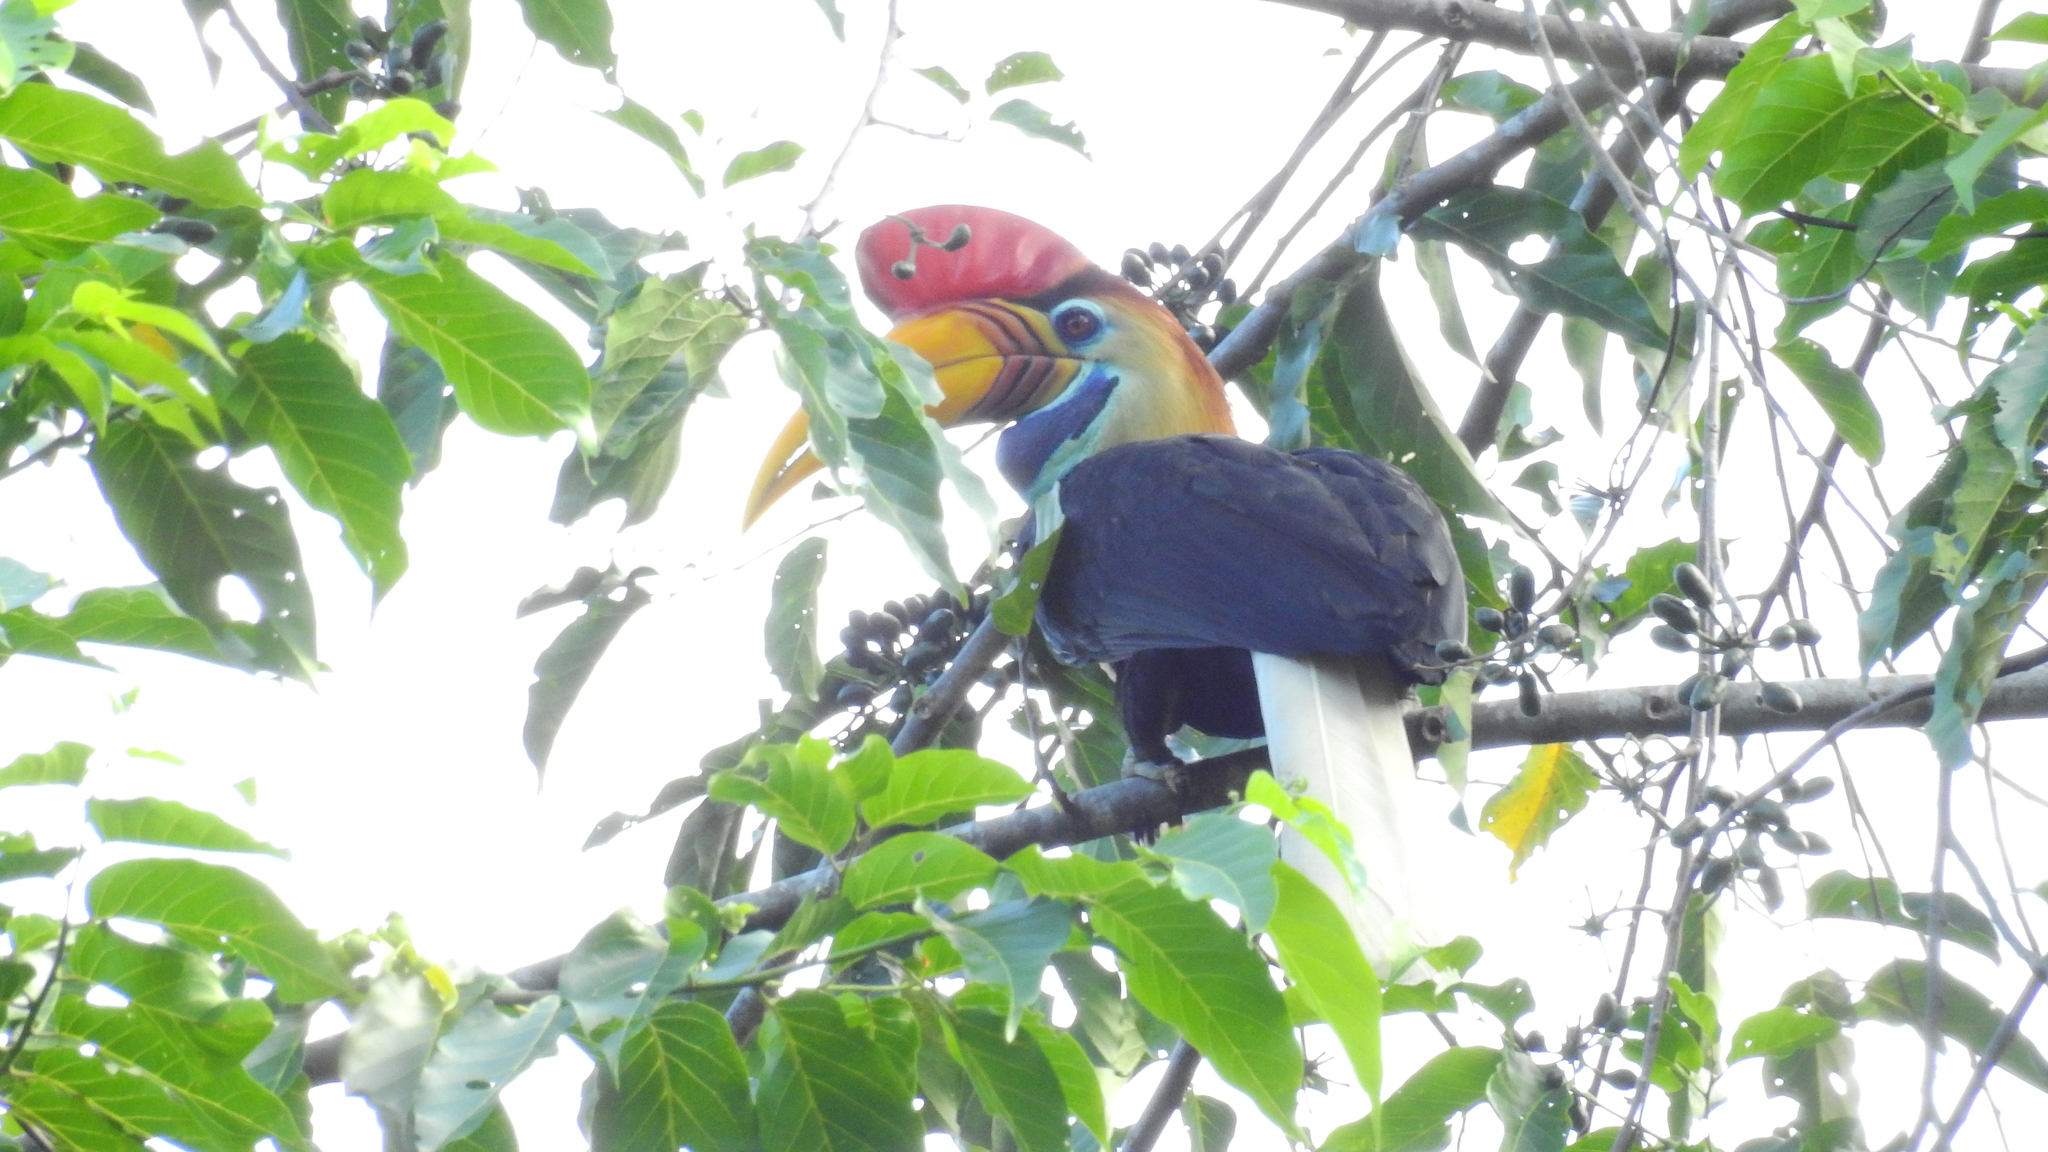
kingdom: Animalia
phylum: Chordata
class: Aves
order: Bucerotiformes
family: Bucerotidae
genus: Rhyticeros
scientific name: Rhyticeros cassidix
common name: Knobbed hornbill
